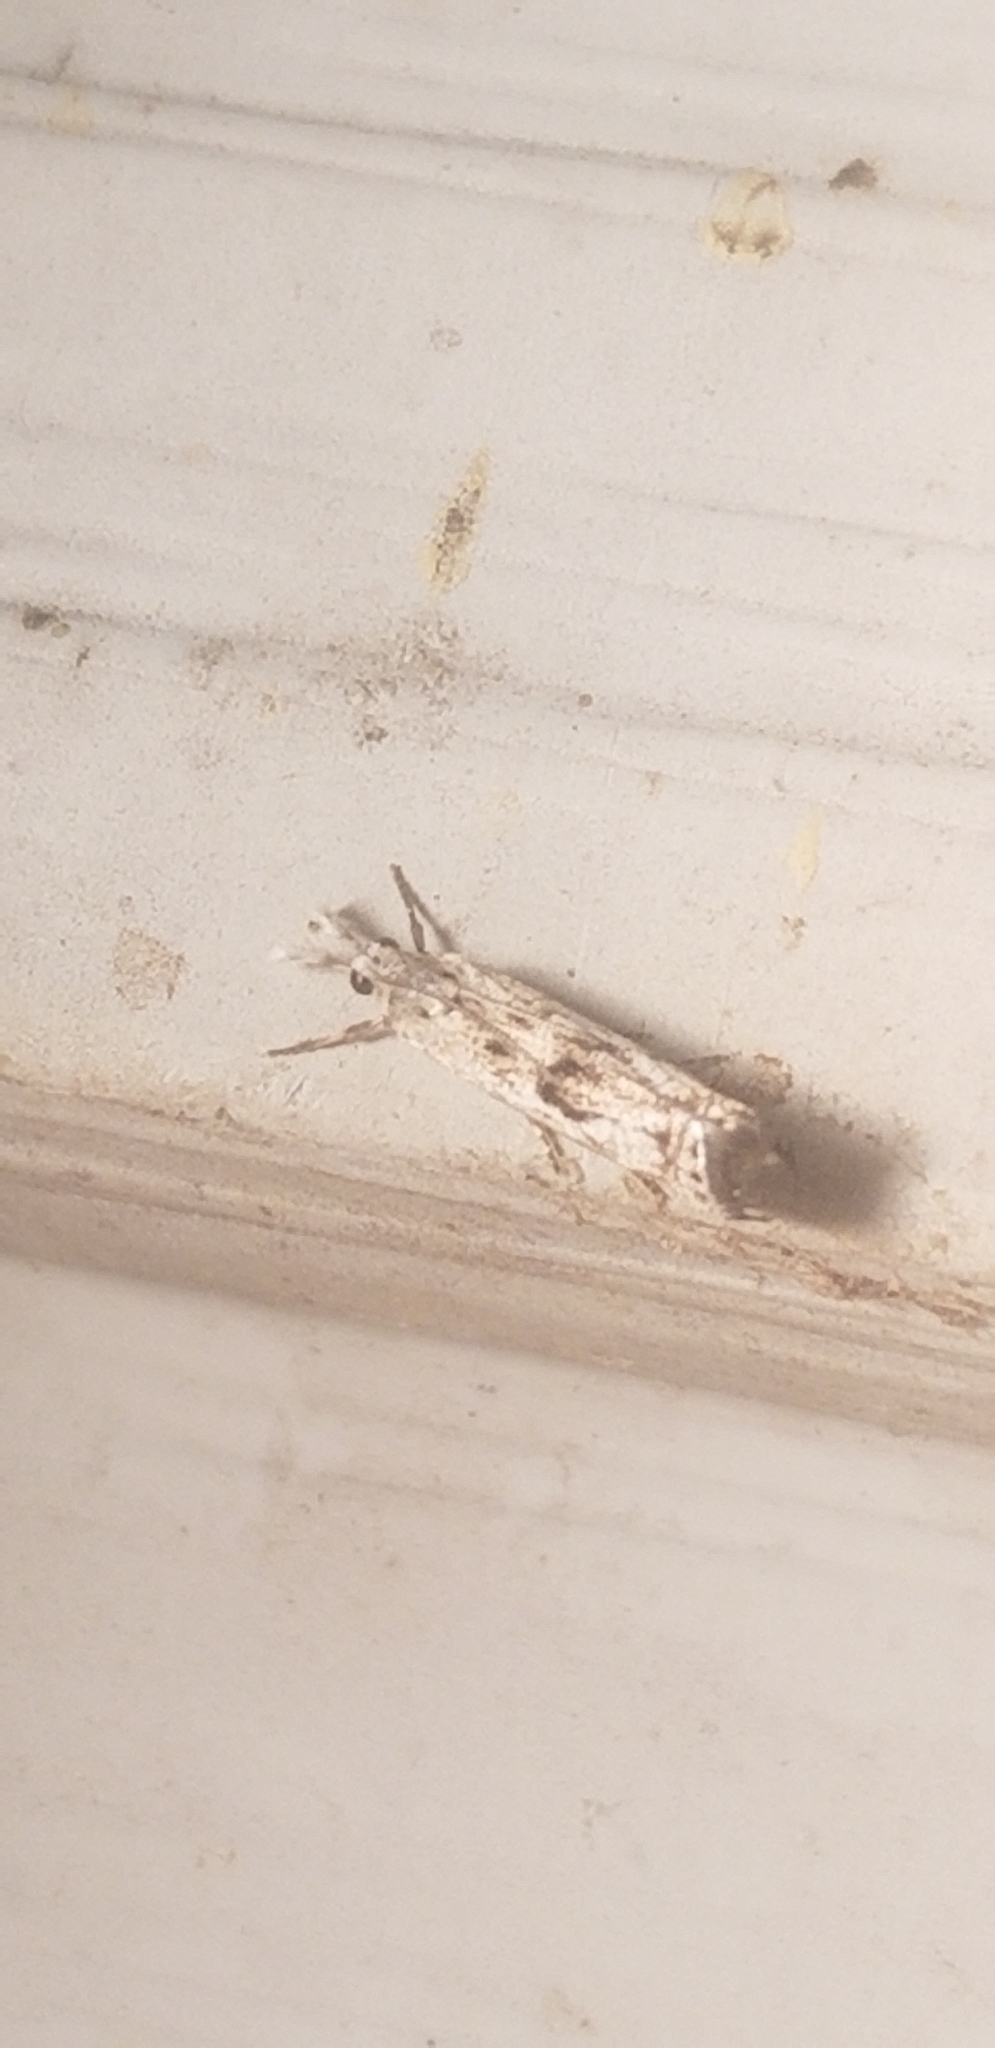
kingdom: Animalia
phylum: Arthropoda
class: Insecta
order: Lepidoptera
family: Crambidae
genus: Microcrambus
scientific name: Microcrambus elegans
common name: Elegant grass-veneer
